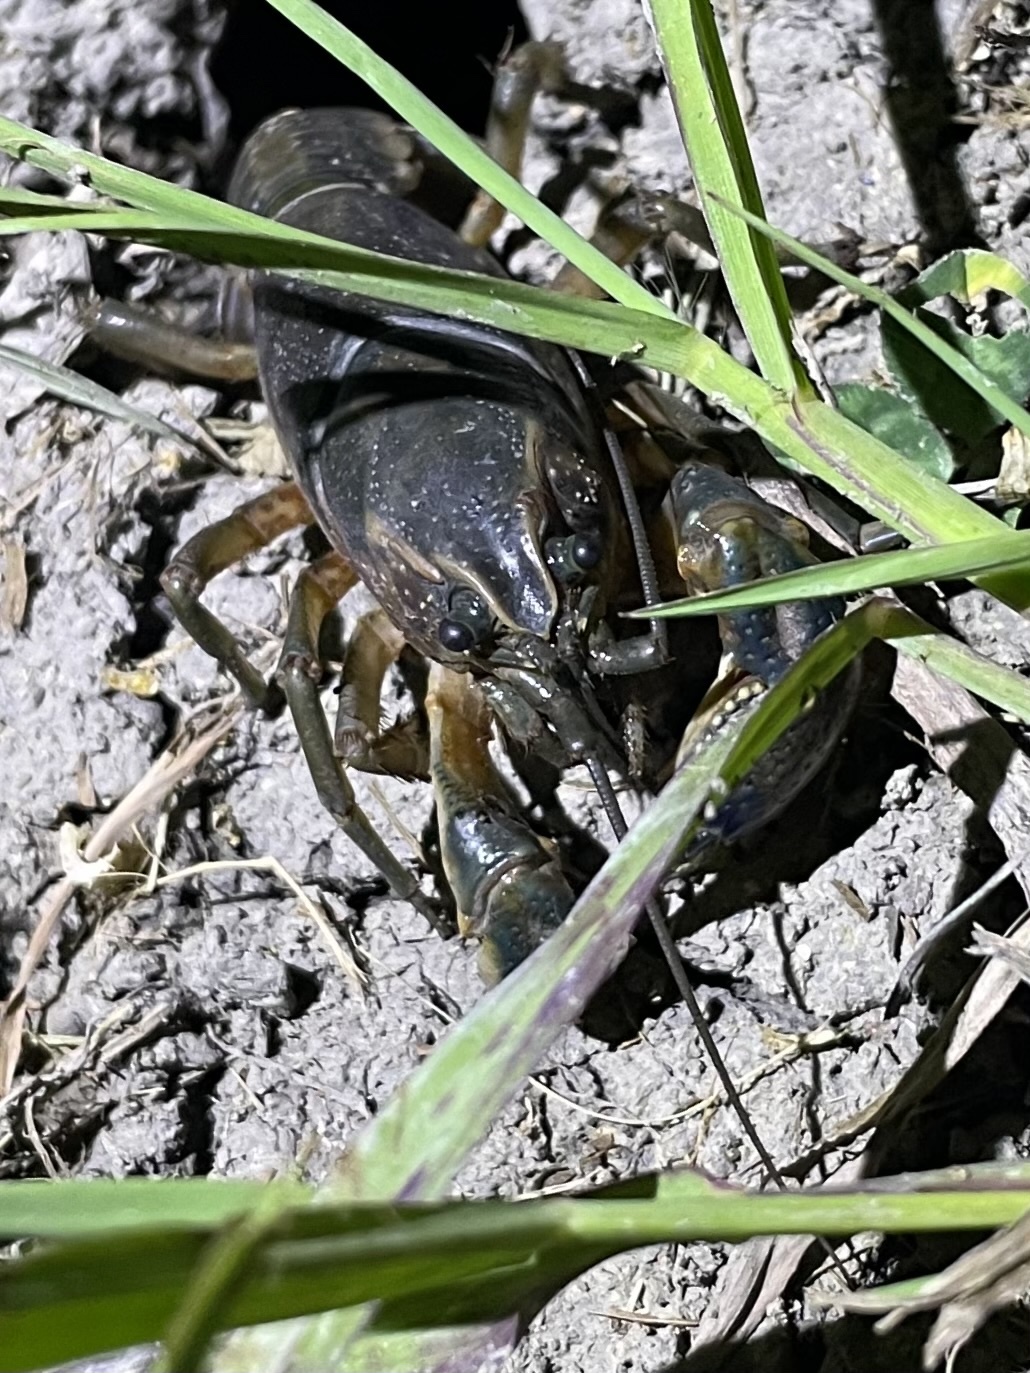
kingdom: Animalia
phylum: Arthropoda
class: Malacostraca
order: Decapoda
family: Cambaridae
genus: Procambarus
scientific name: Procambarus steigmani
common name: Parkhill prairie crayfish
